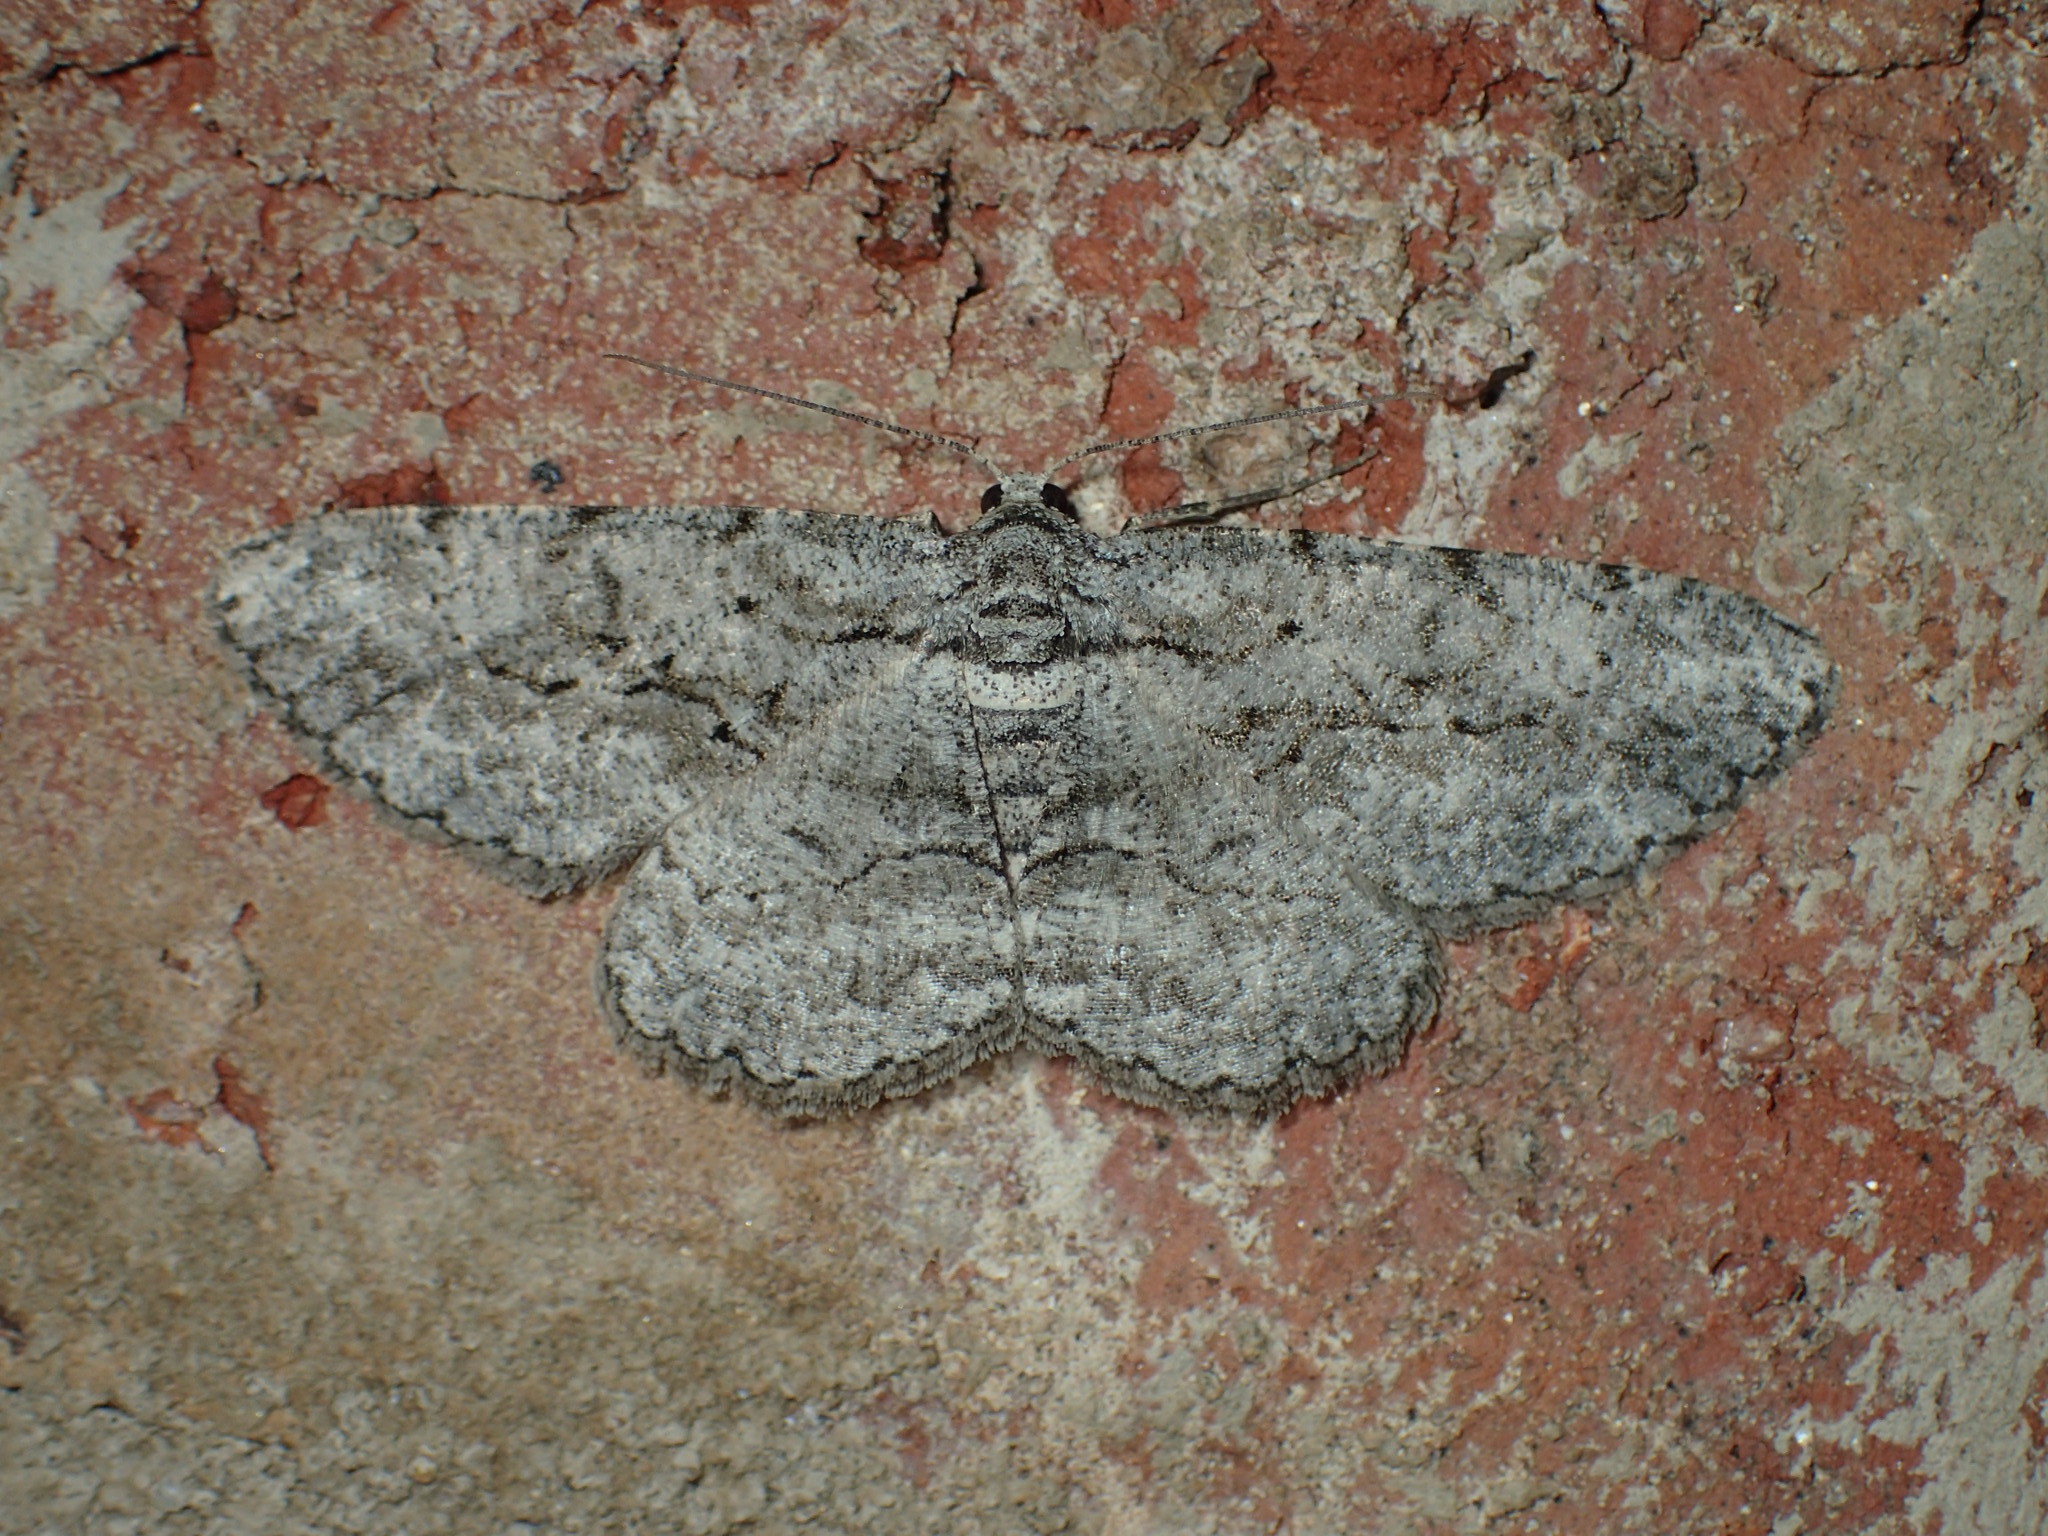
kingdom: Animalia
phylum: Arthropoda
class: Insecta
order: Lepidoptera
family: Geometridae
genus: Anavitrinella
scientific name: Anavitrinella pampinaria
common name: Common gray
